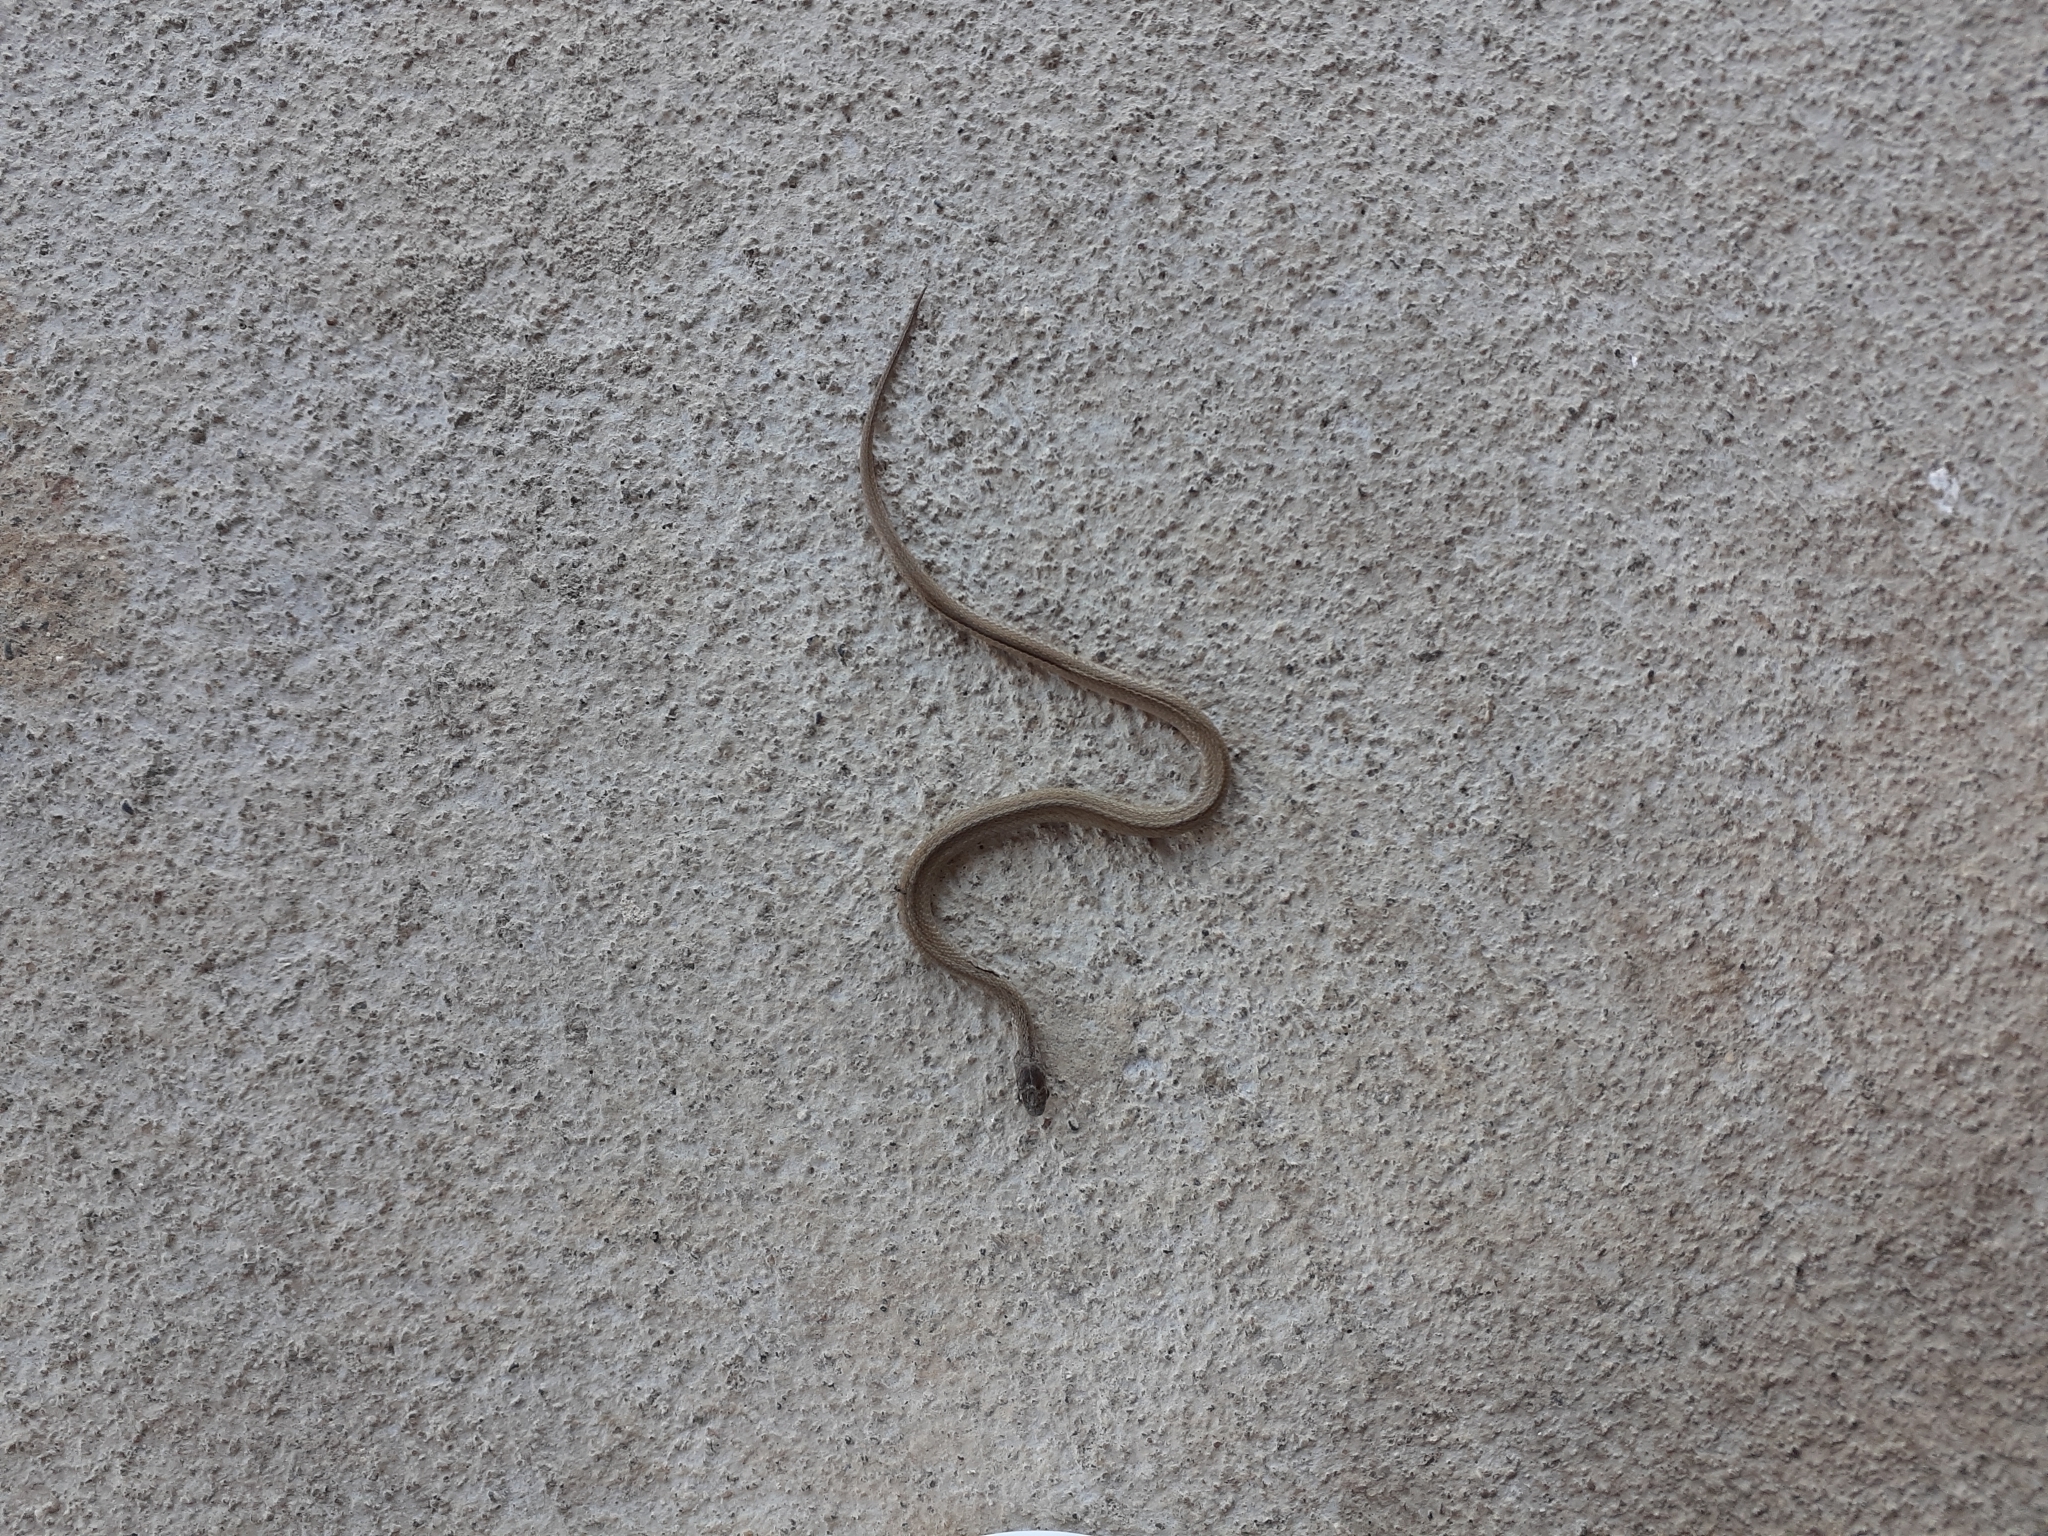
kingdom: Animalia
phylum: Chordata
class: Squamata
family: Colubridae
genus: Storeria
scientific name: Storeria dekayi
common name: (dekay’s) brown snake
